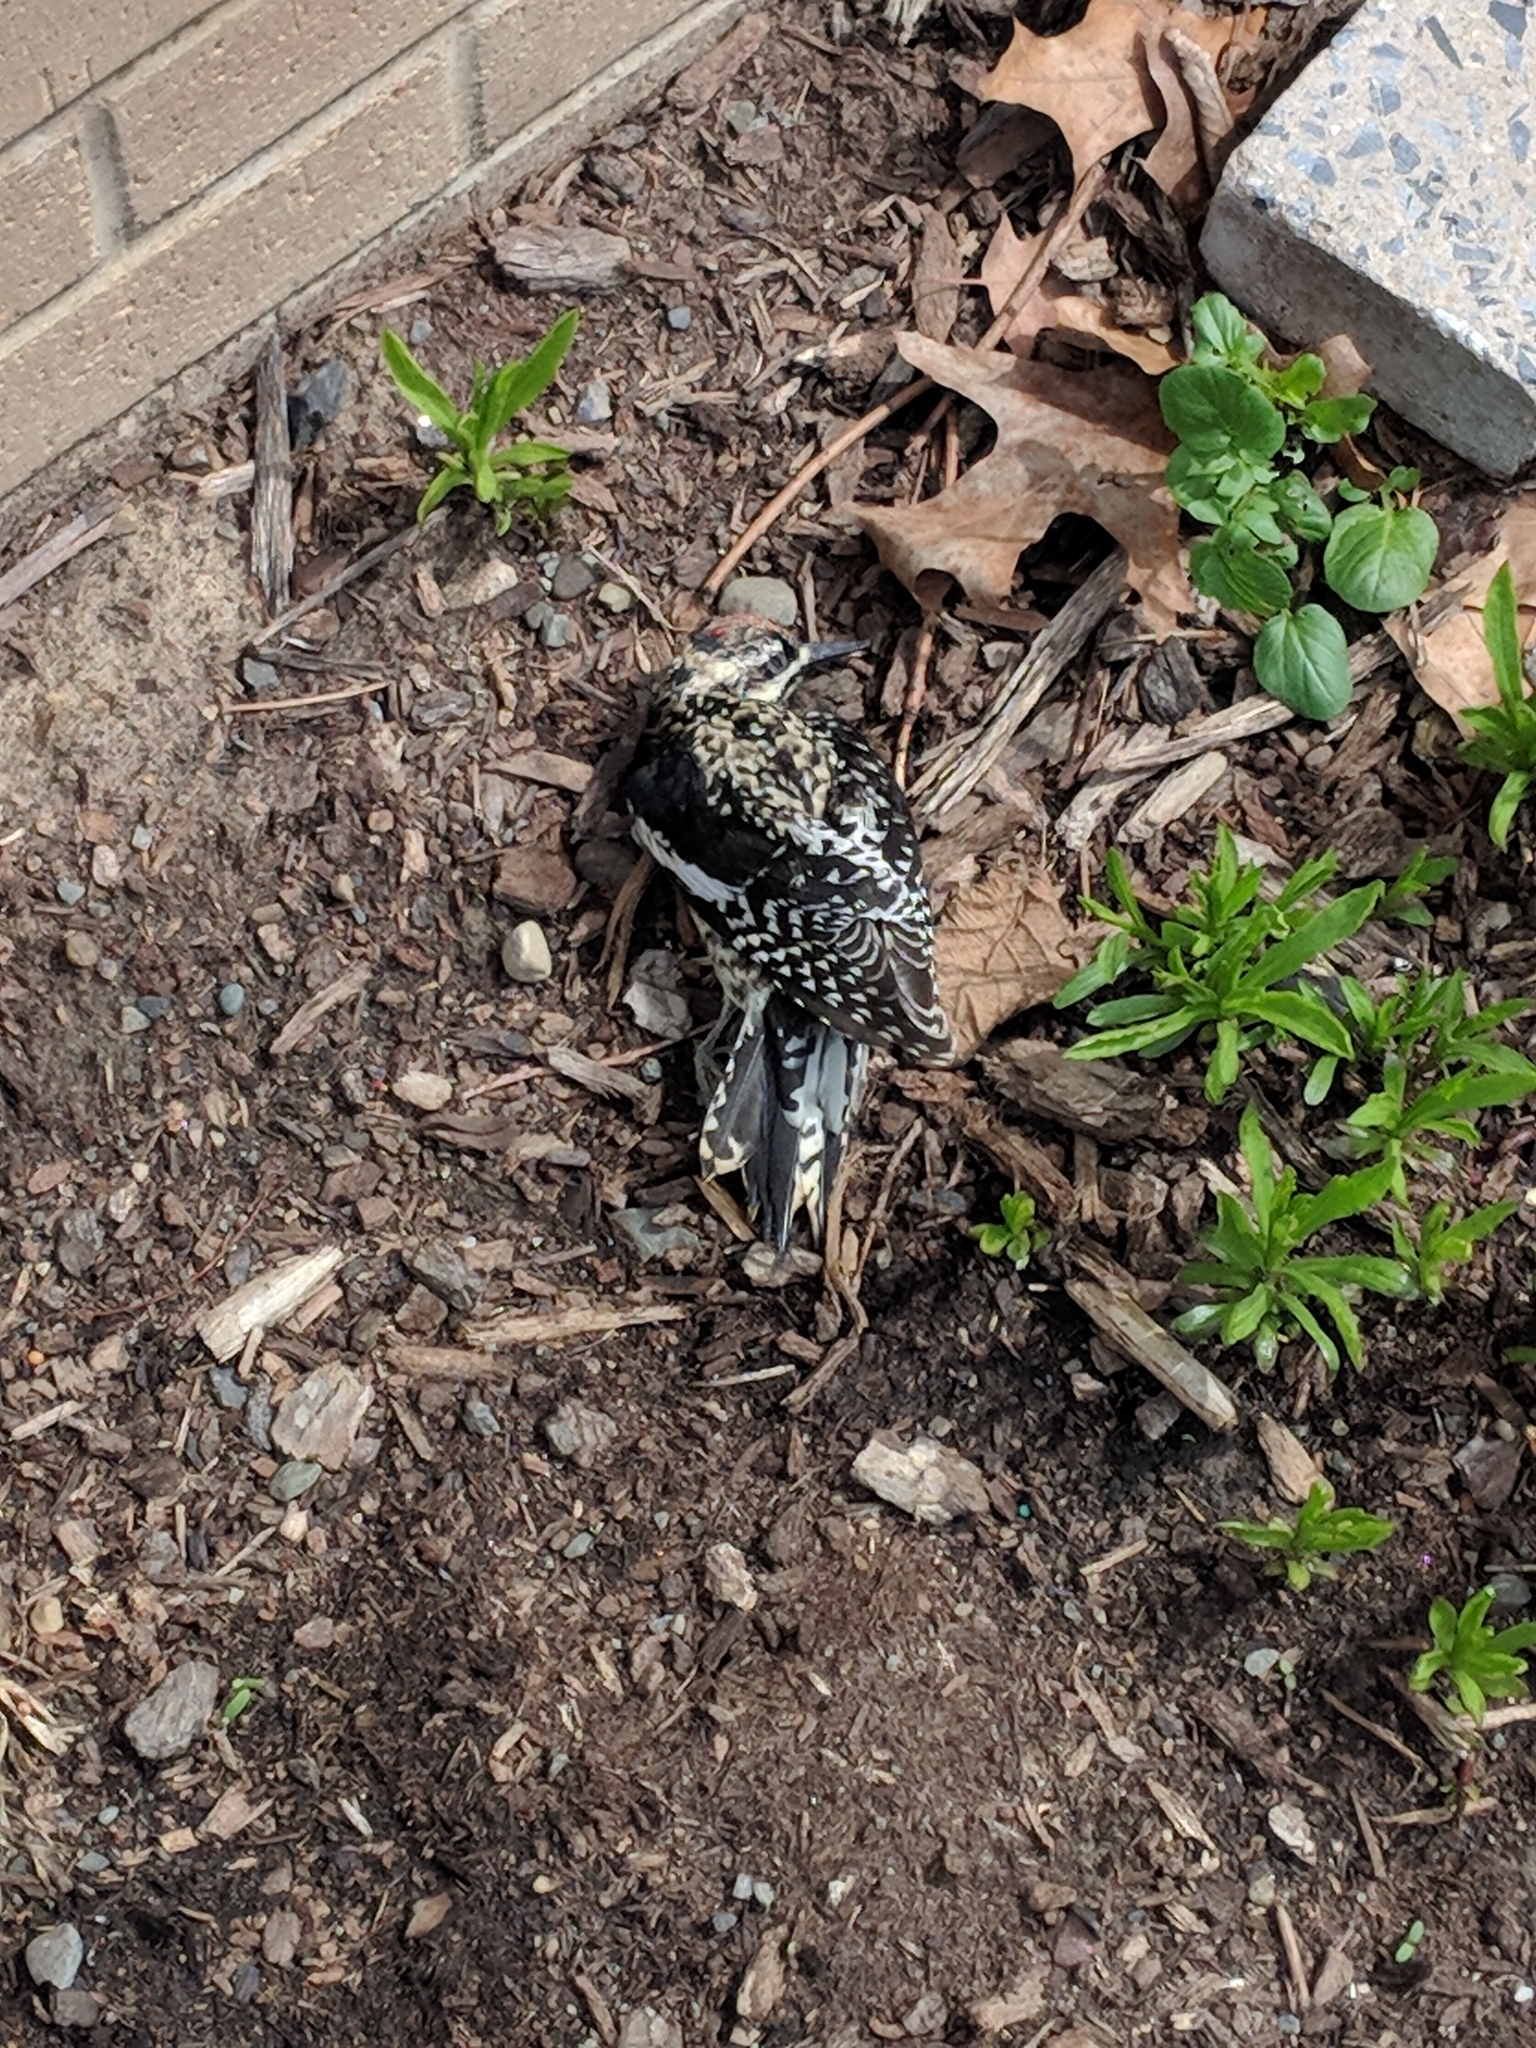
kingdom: Animalia
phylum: Chordata
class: Aves
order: Piciformes
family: Picidae
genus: Sphyrapicus
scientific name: Sphyrapicus varius
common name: Yellow-bellied sapsucker
